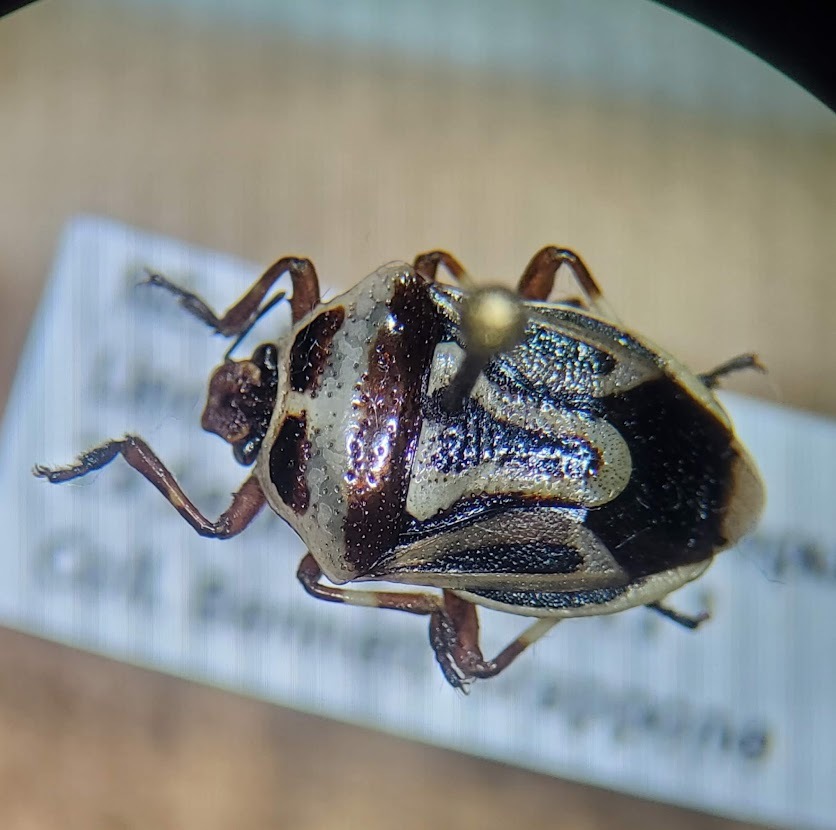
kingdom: Animalia
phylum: Arthropoda
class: Insecta
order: Hemiptera
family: Pentatomidae
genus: Perillus
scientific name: Perillus bioculatus
